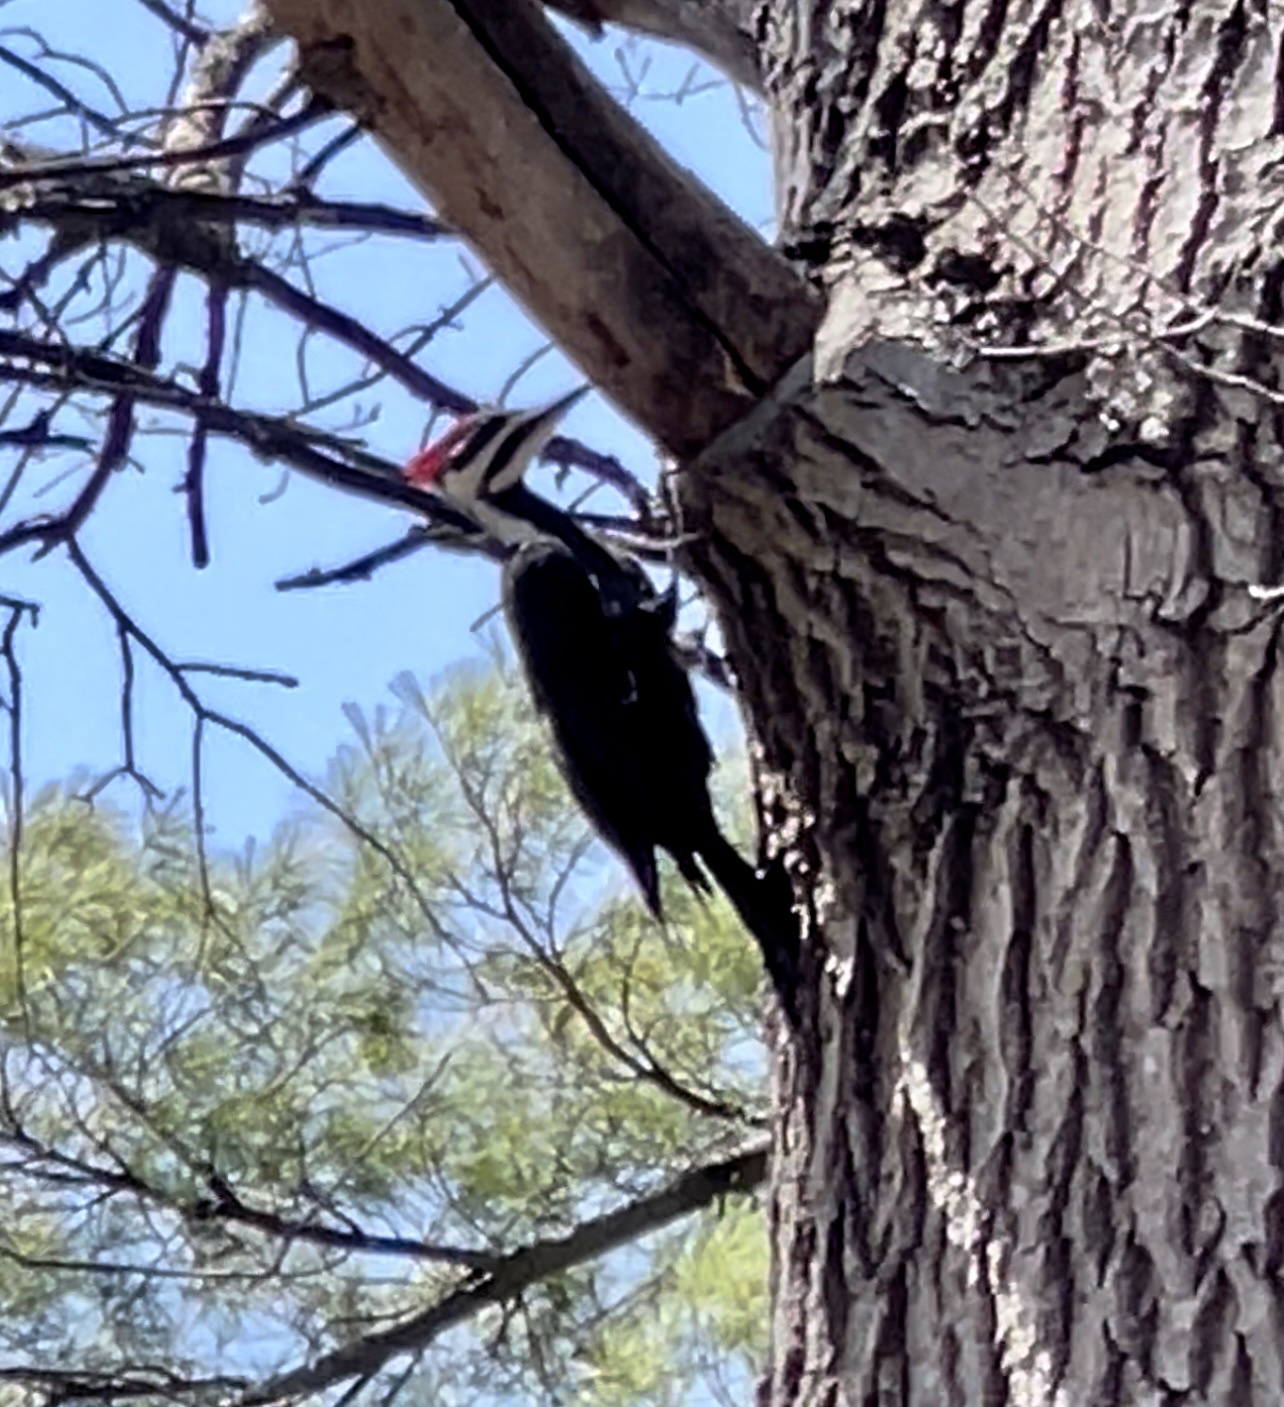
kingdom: Animalia
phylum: Chordata
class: Aves
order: Piciformes
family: Picidae
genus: Dryocopus
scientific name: Dryocopus pileatus
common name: Pileated woodpecker
